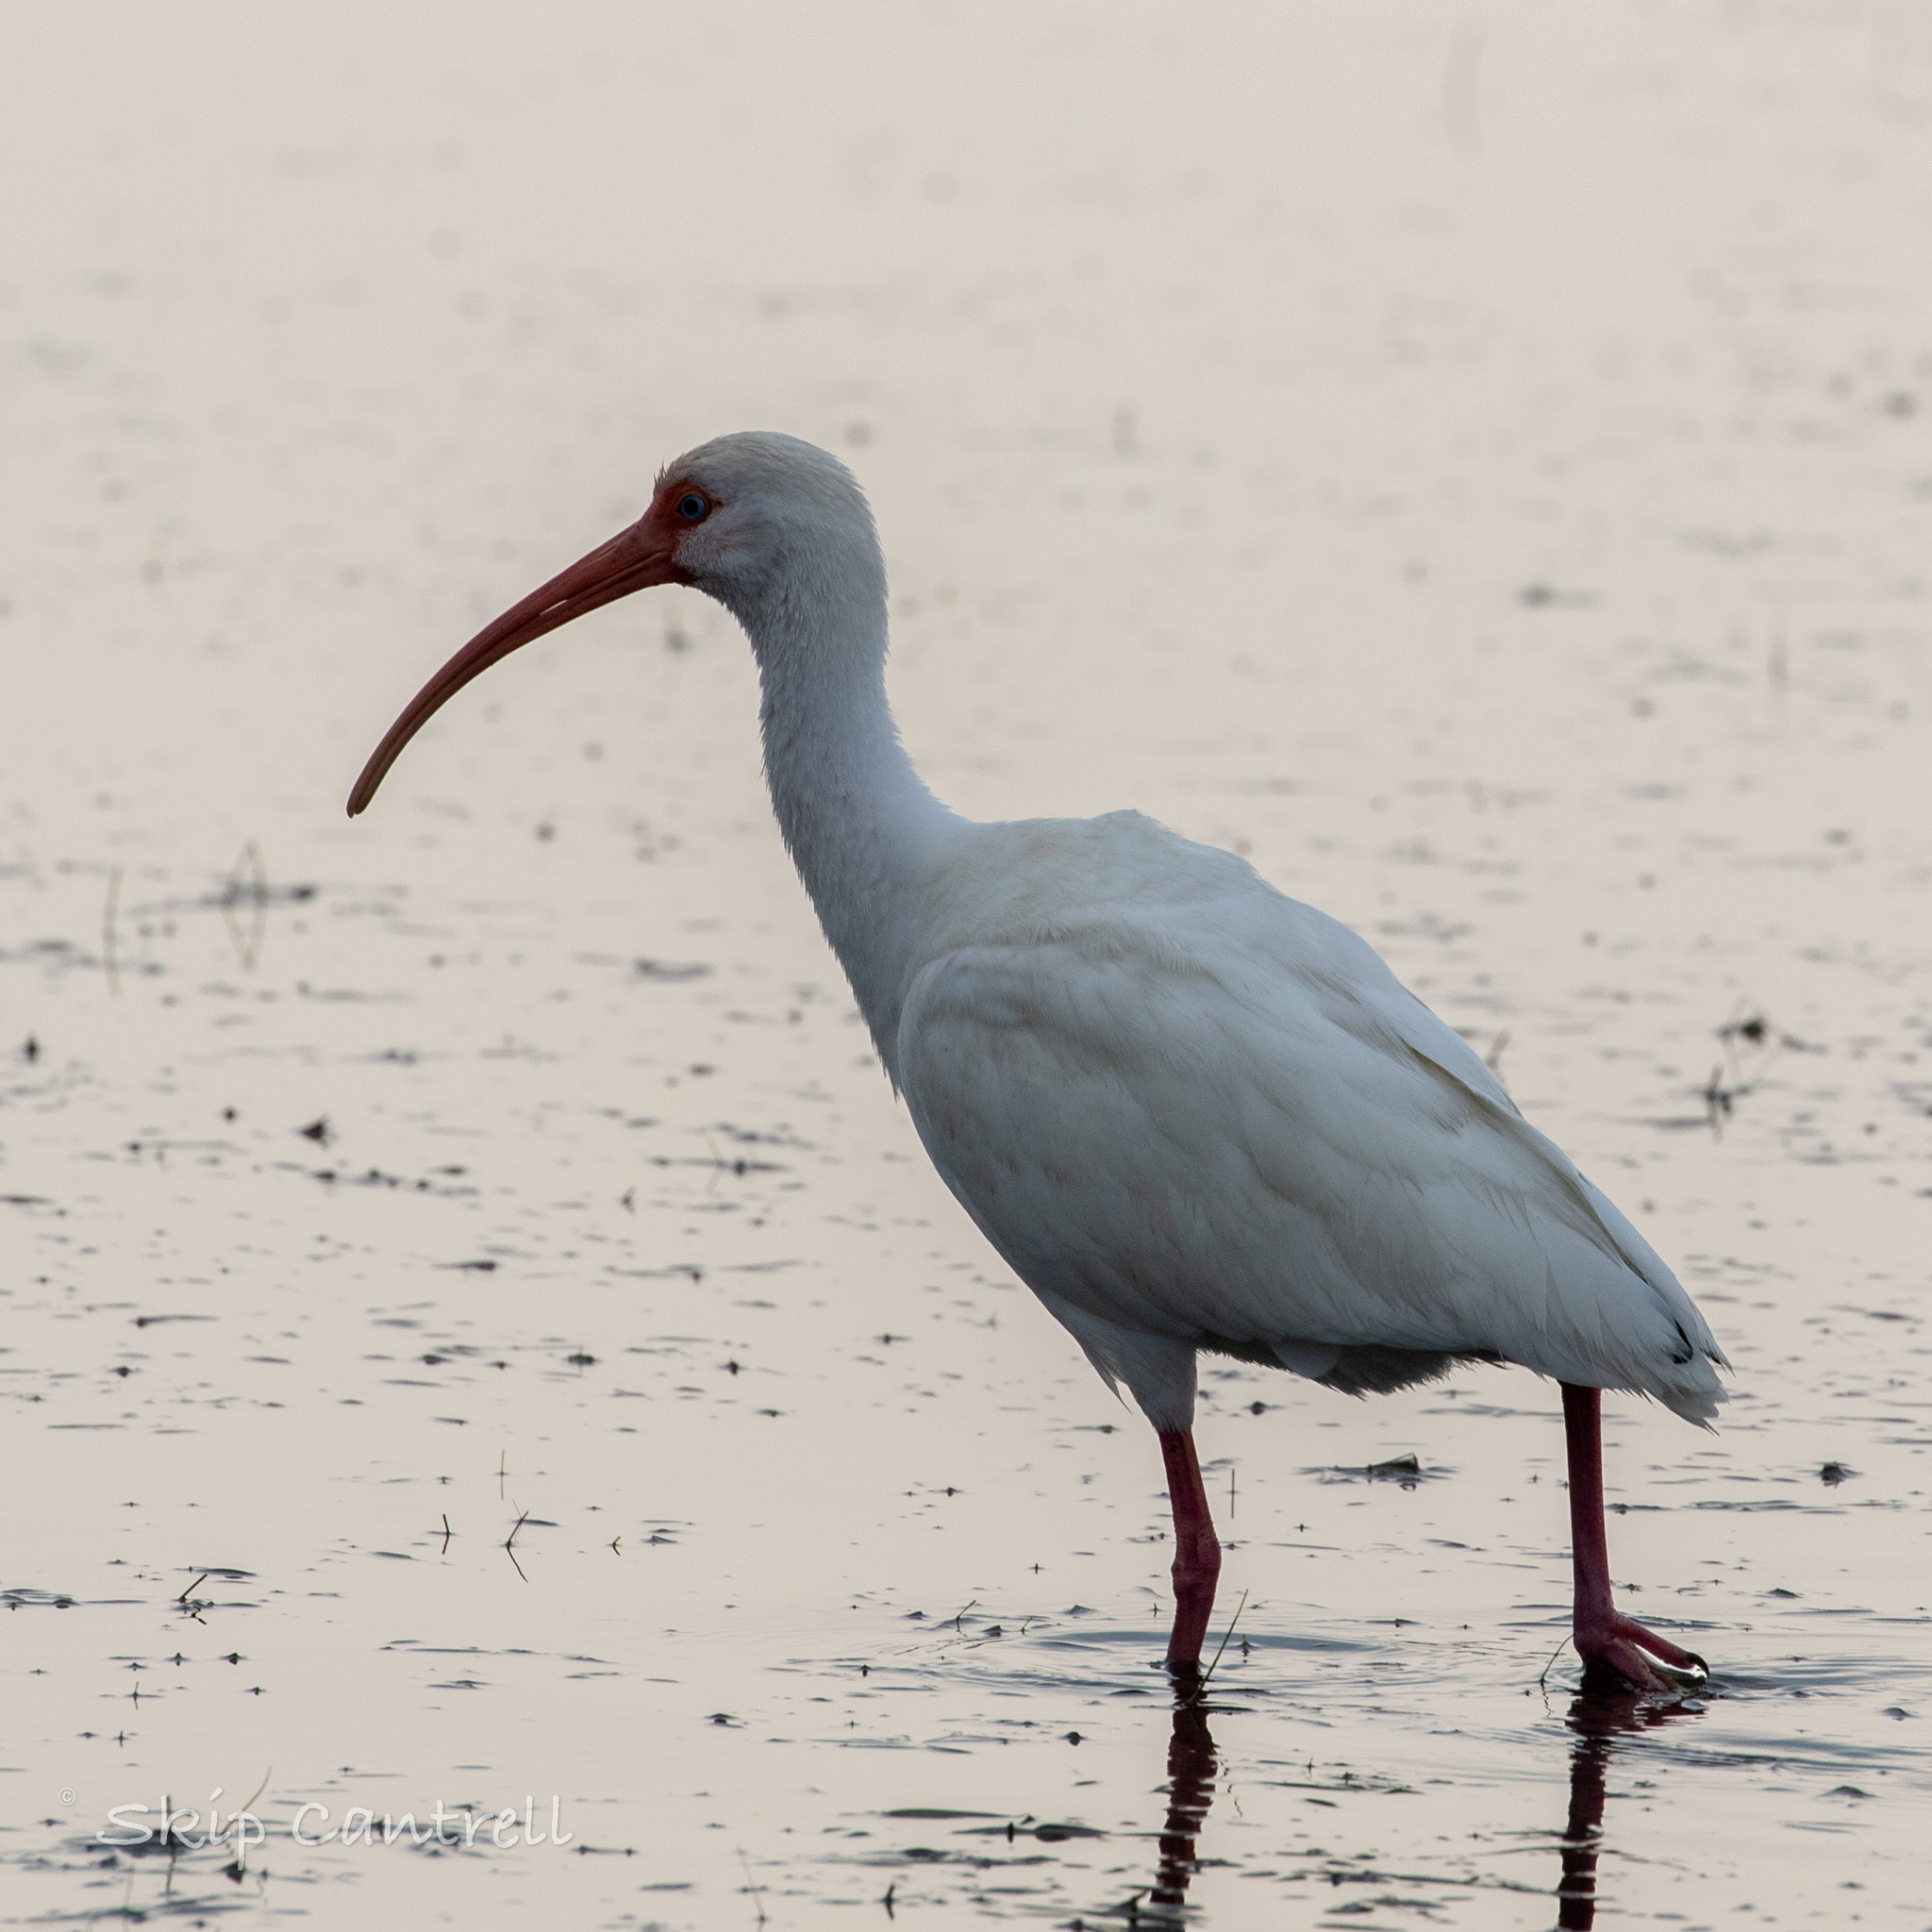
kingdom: Animalia
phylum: Chordata
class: Aves
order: Pelecaniformes
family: Threskiornithidae
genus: Eudocimus
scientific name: Eudocimus albus
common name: White ibis
